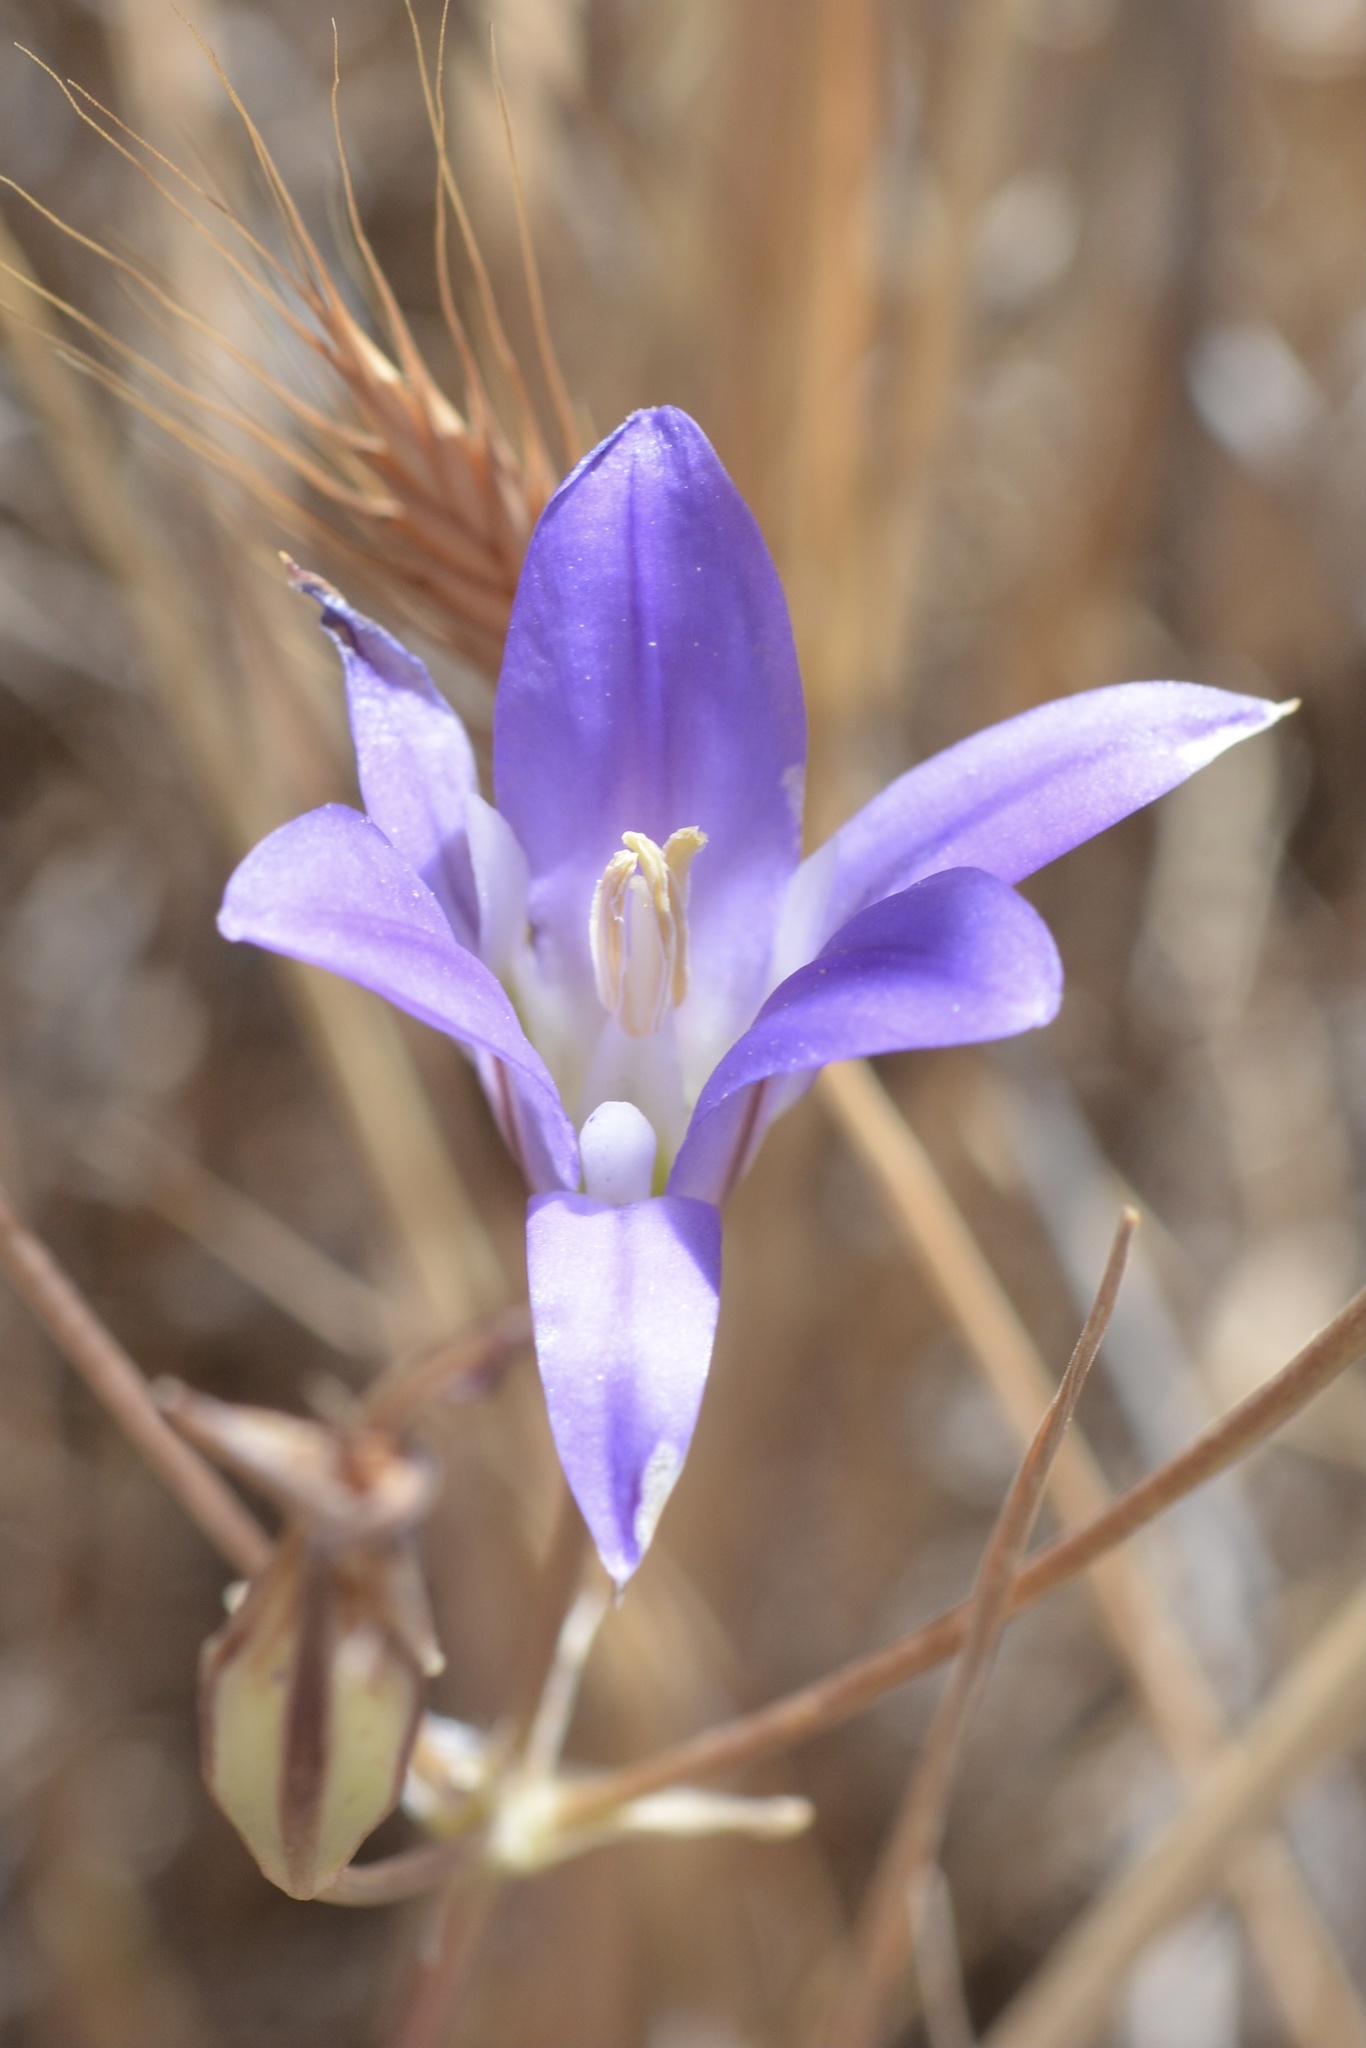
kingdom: Plantae
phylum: Tracheophyta
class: Liliopsida
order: Asparagales
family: Asparagaceae
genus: Brodiaea
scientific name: Brodiaea elegans
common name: Elegant cluster-lily
